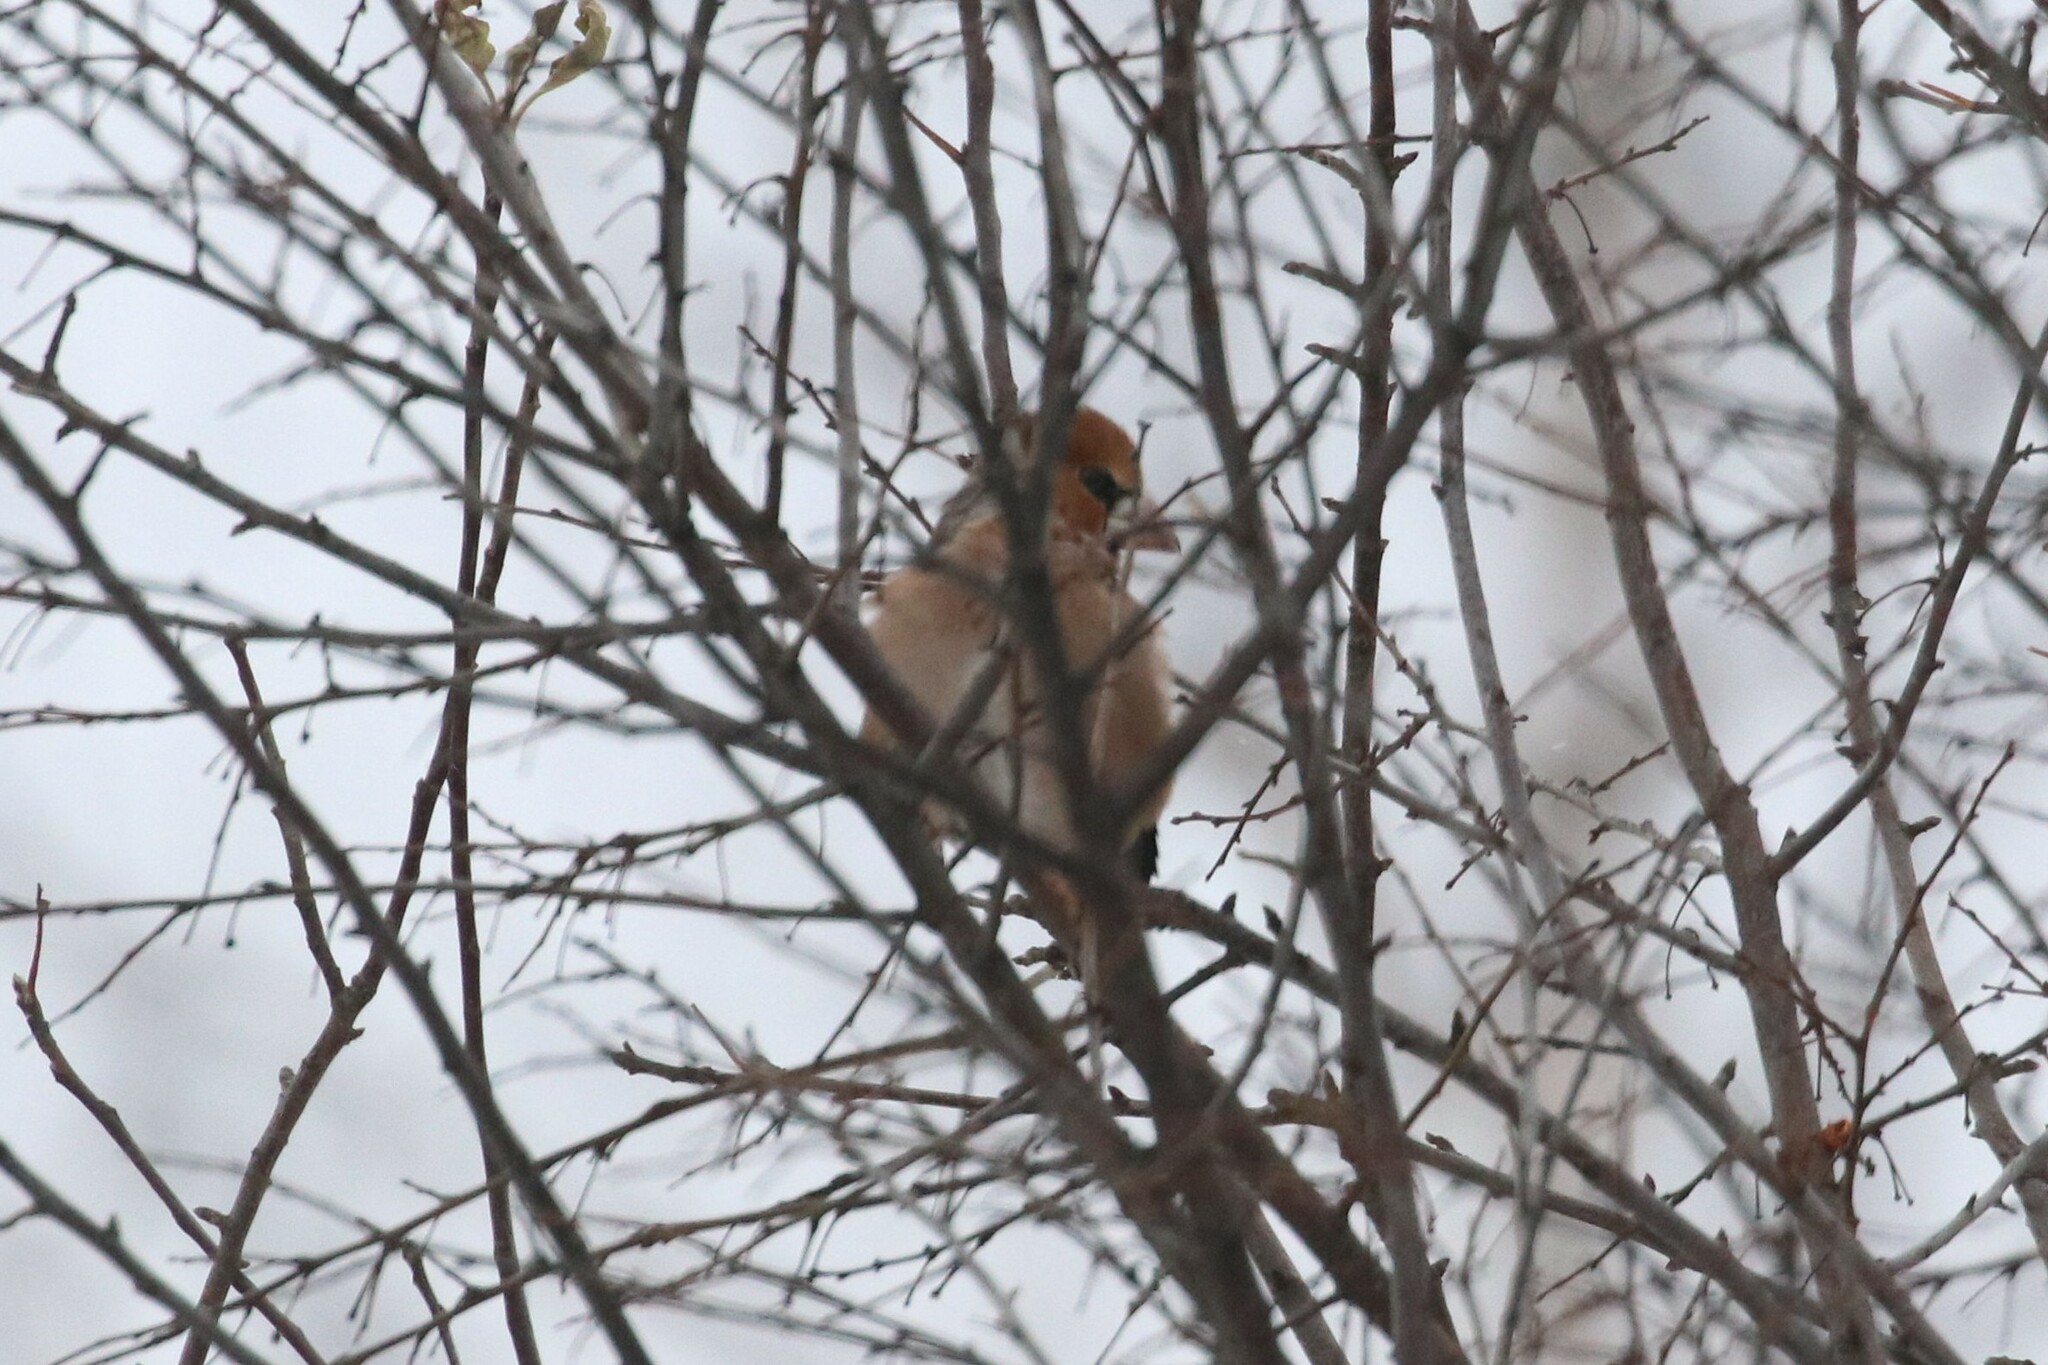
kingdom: Animalia
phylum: Chordata
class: Aves
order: Passeriformes
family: Fringillidae
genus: Coccothraustes
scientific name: Coccothraustes coccothraustes
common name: Hawfinch
